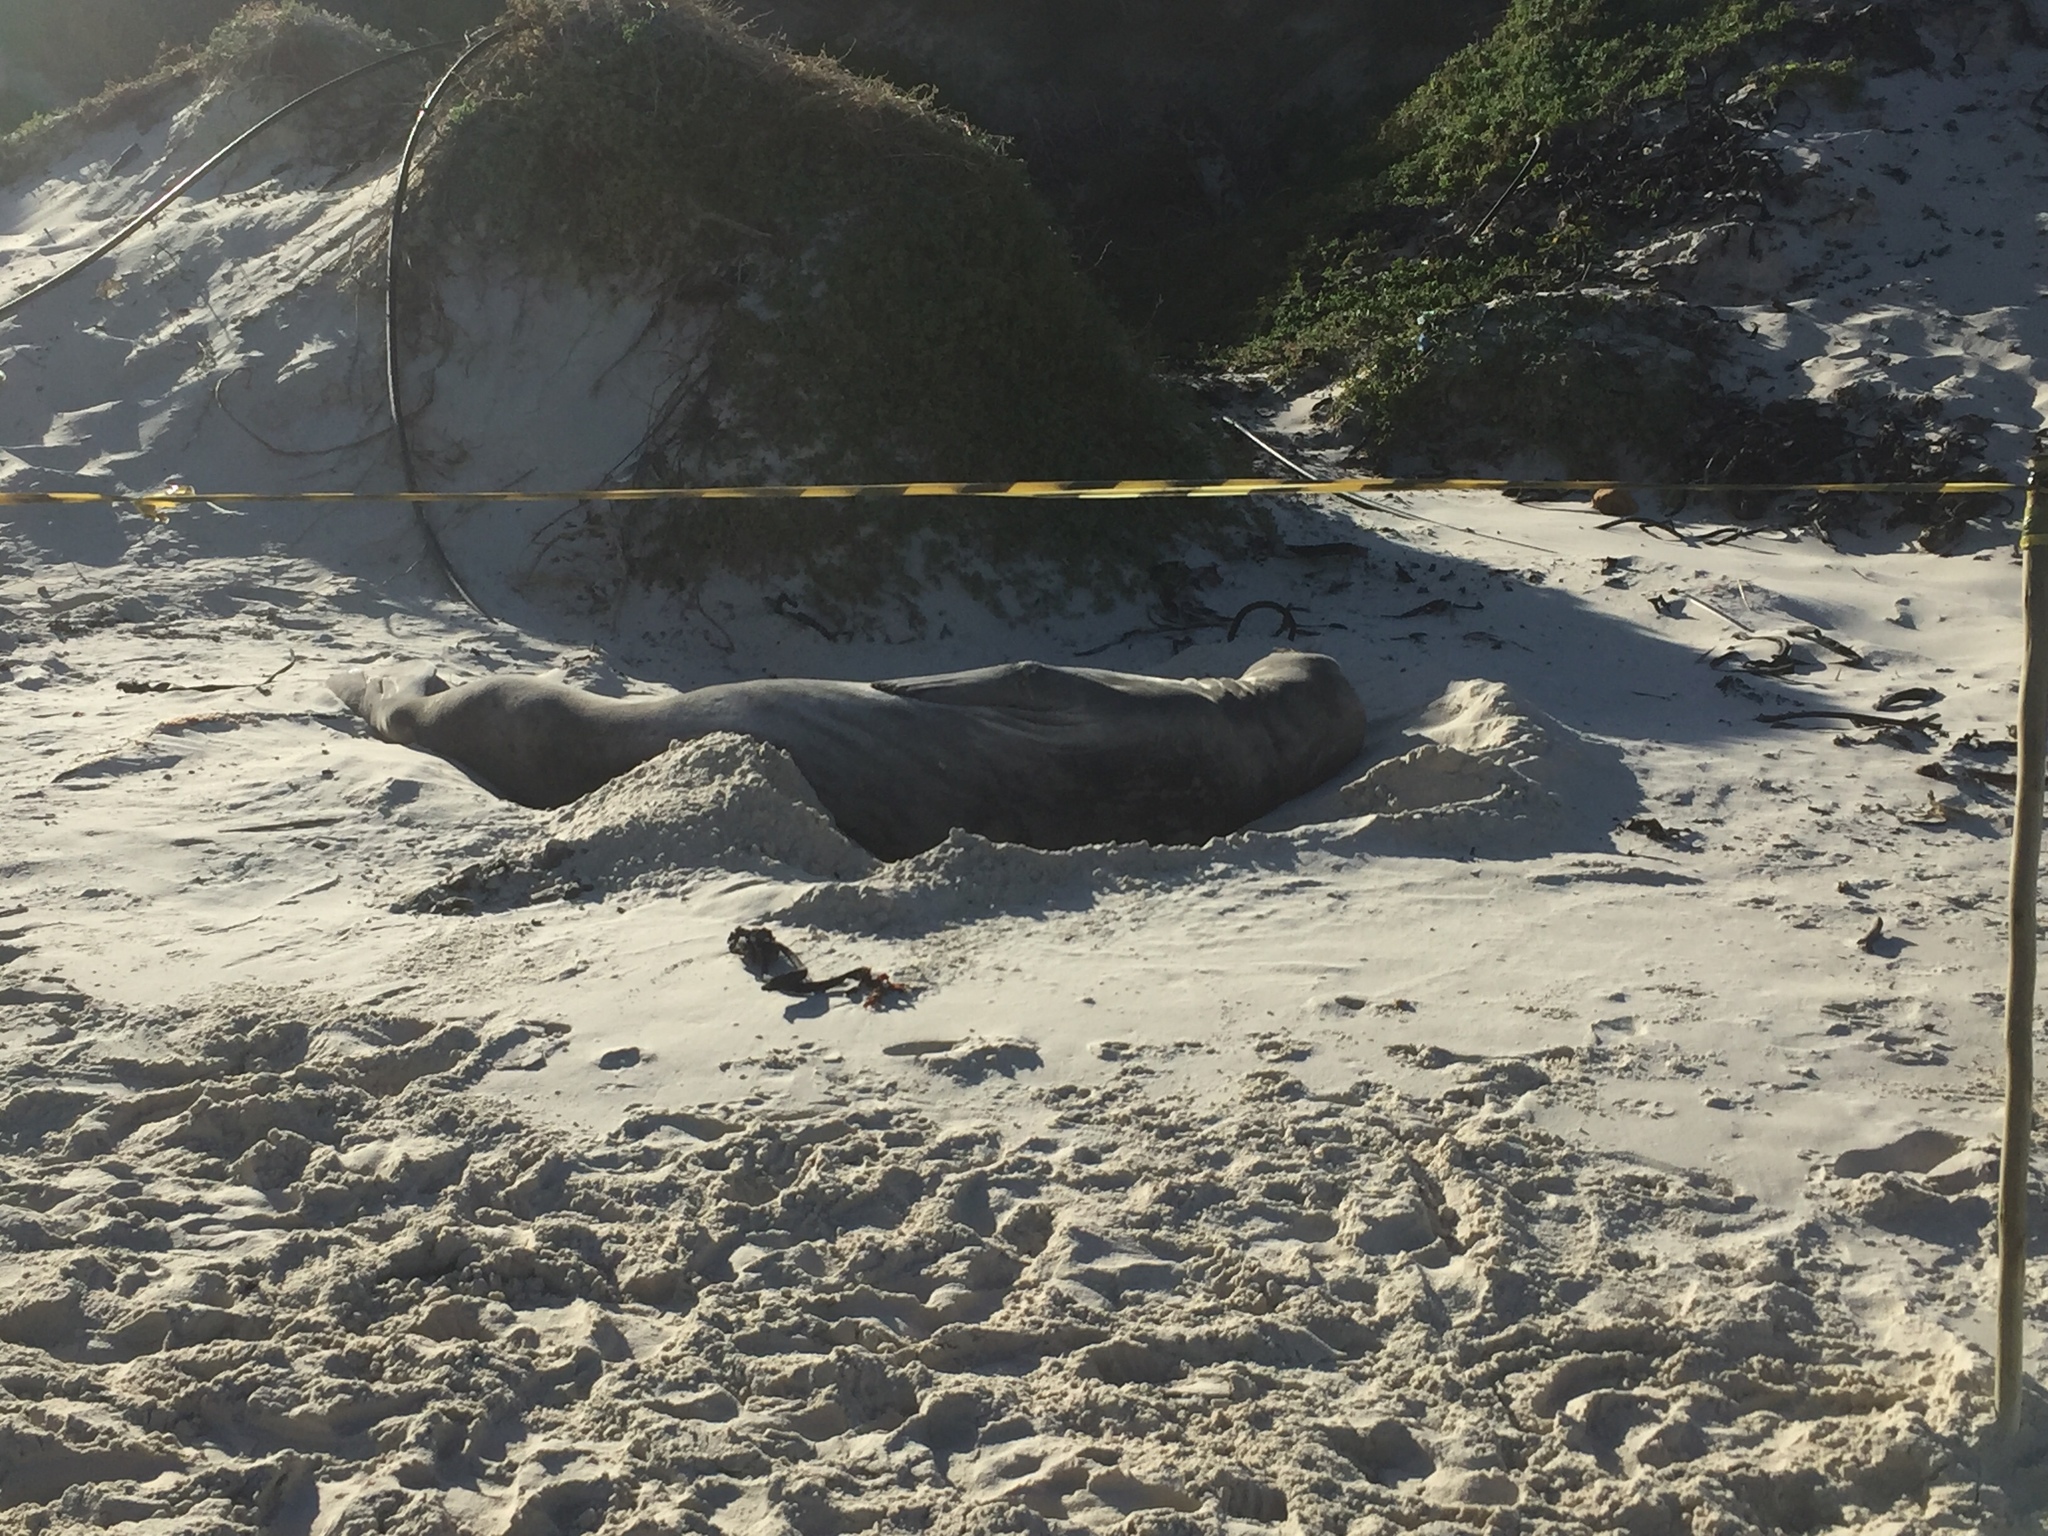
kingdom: Animalia
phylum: Chordata
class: Mammalia
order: Carnivora
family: Phocidae
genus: Mirounga
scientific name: Mirounga leonina
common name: Southern elephant seal
